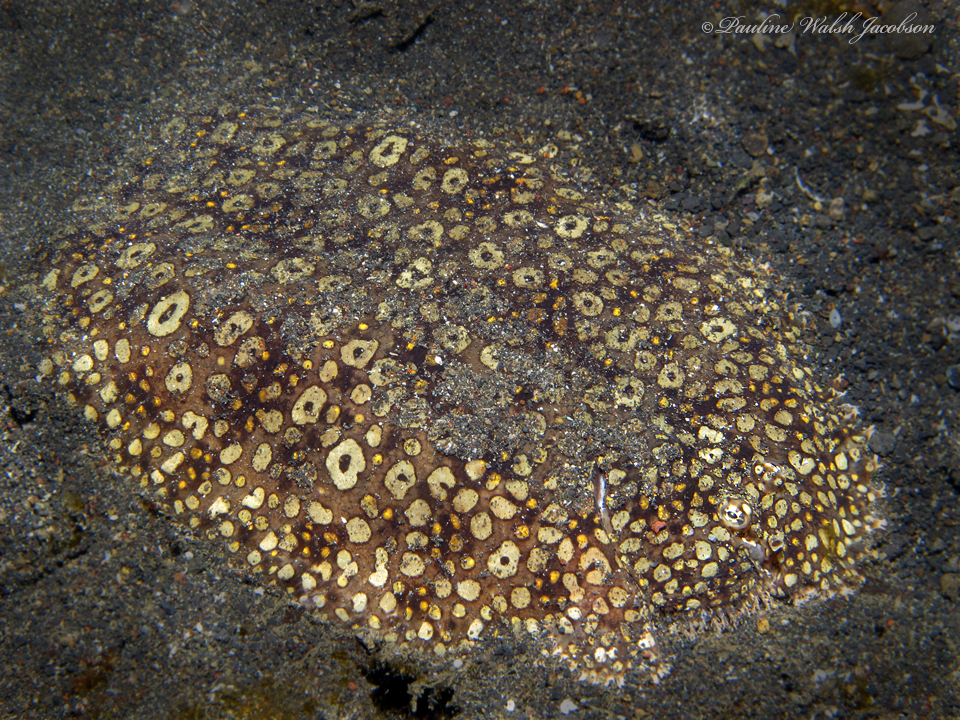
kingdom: Animalia
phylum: Chordata
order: Pleuronectiformes
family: Soleidae
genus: Pardachirus
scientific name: Pardachirus pavoninus
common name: Ocellated sole
